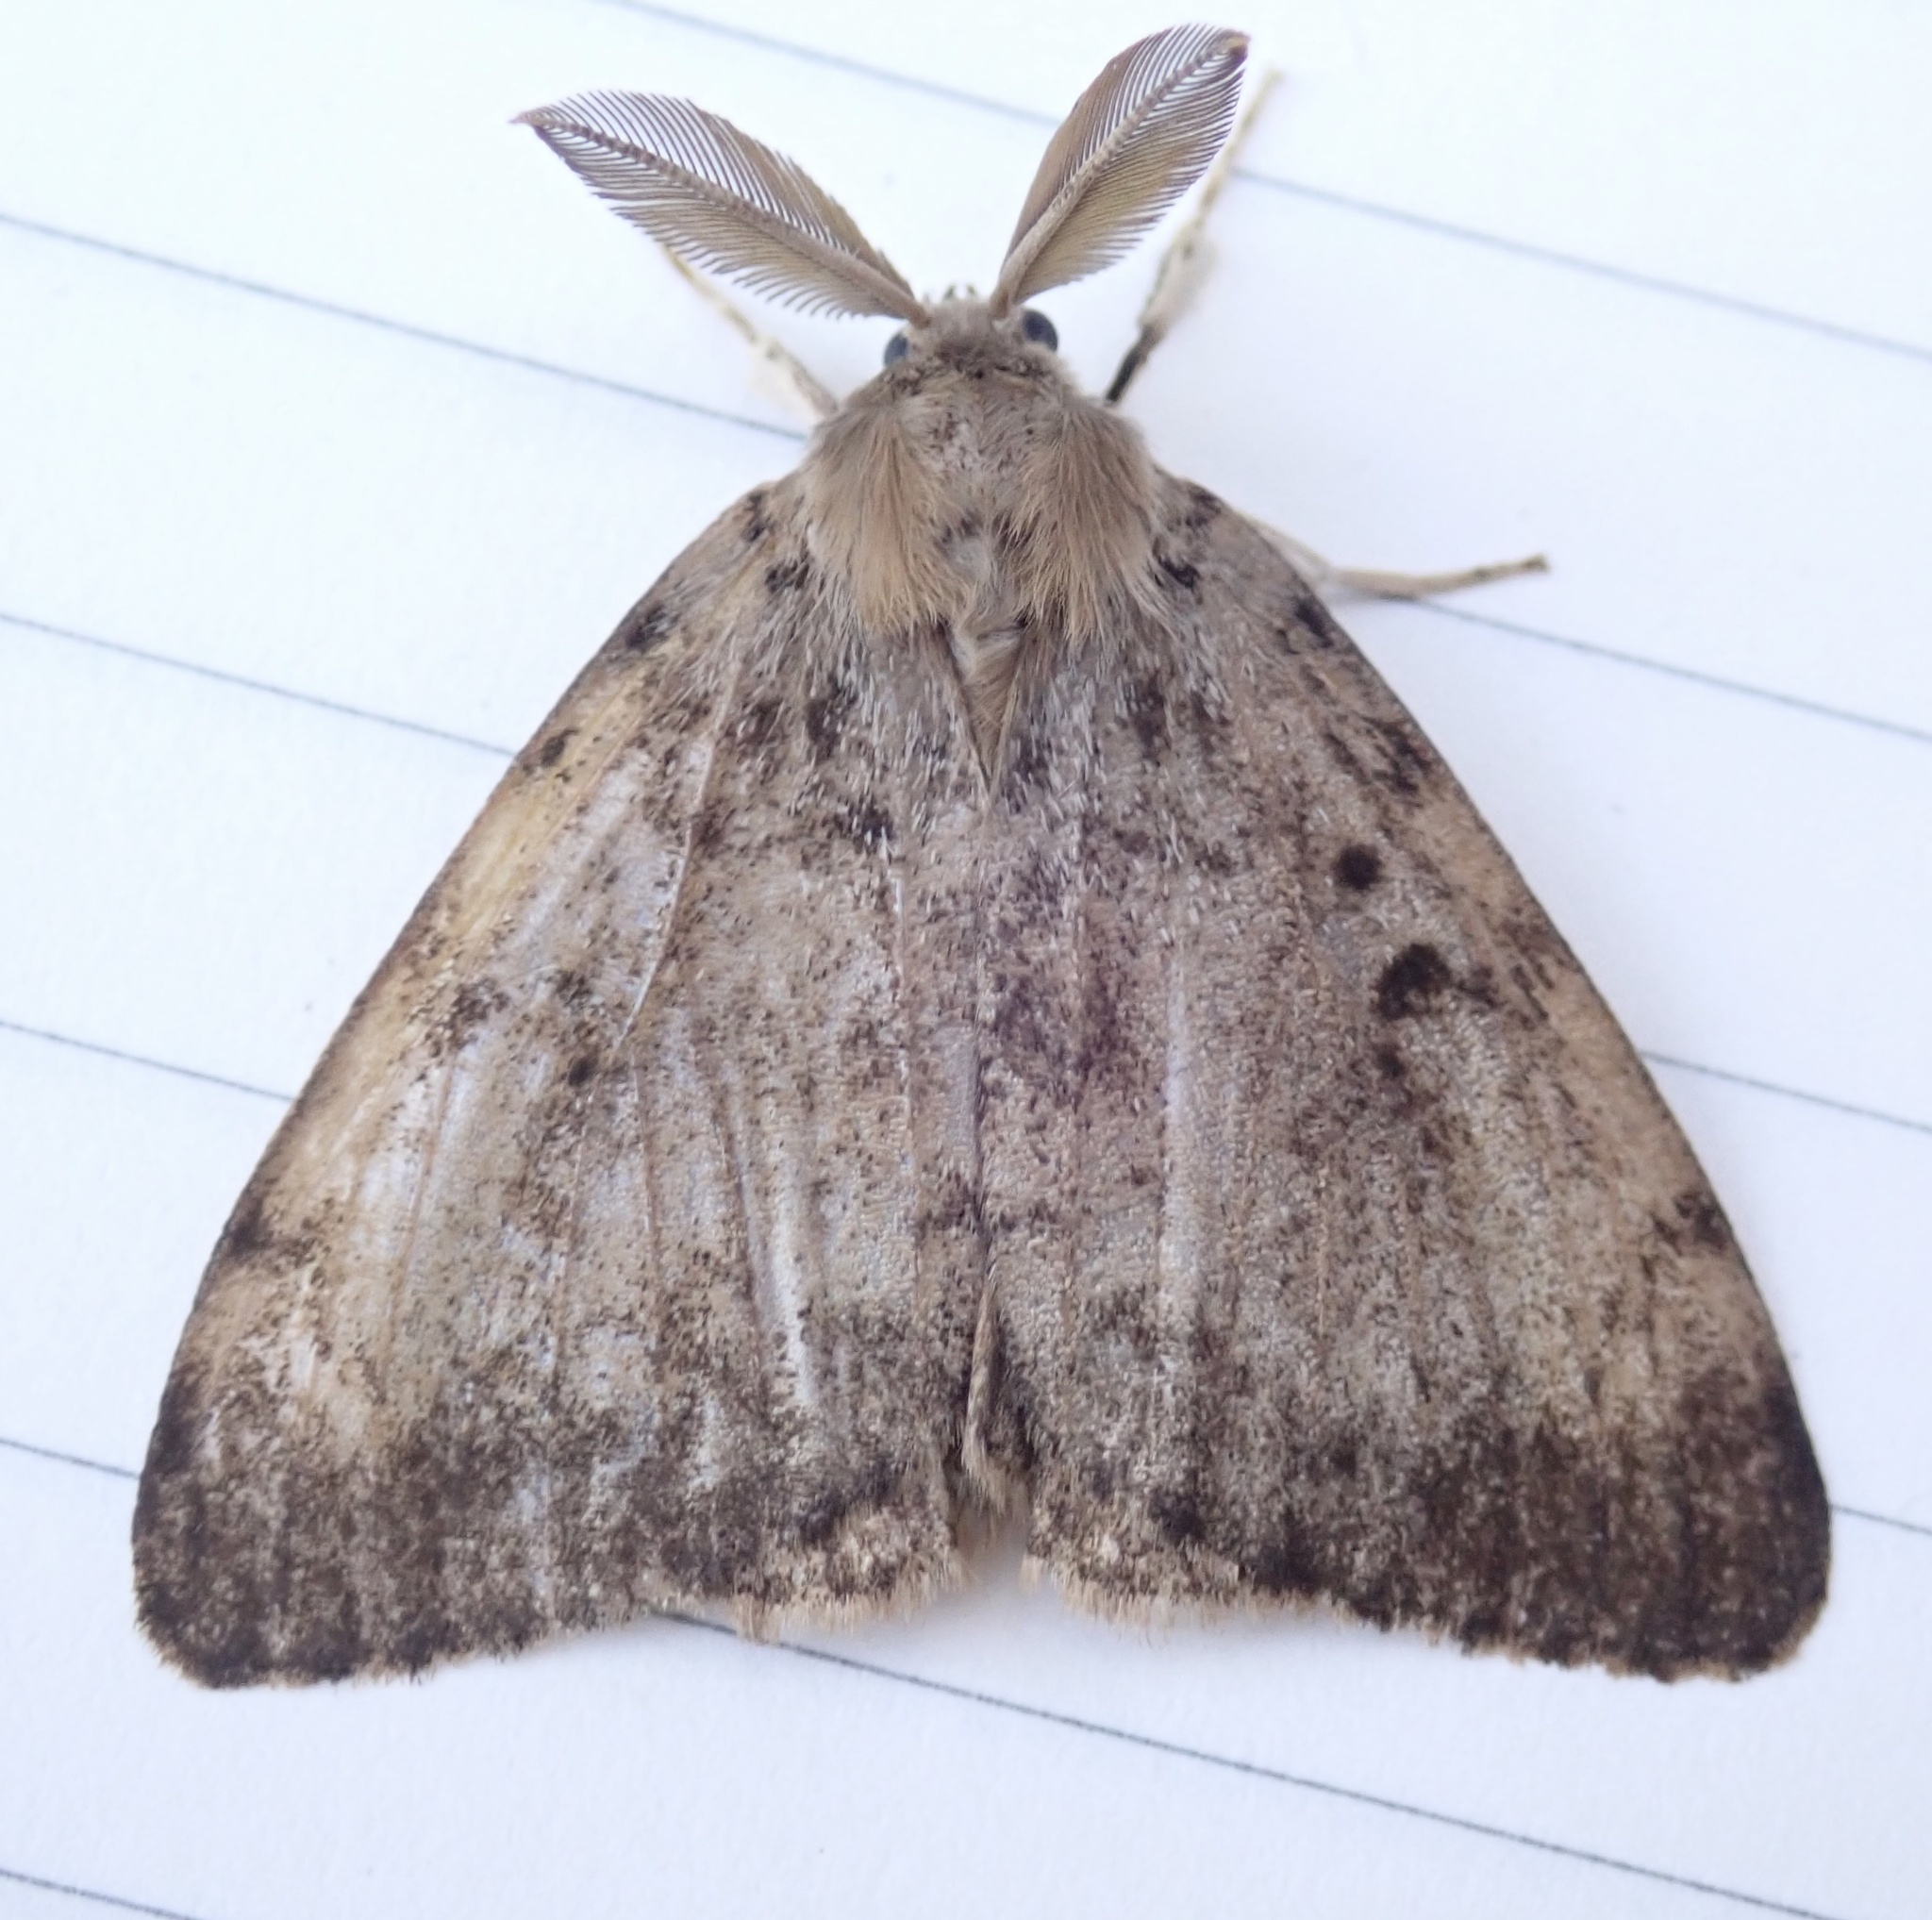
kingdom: Animalia
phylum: Arthropoda
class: Insecta
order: Lepidoptera
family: Erebidae
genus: Lymantria
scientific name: Lymantria dispar
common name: Gypsy moth
